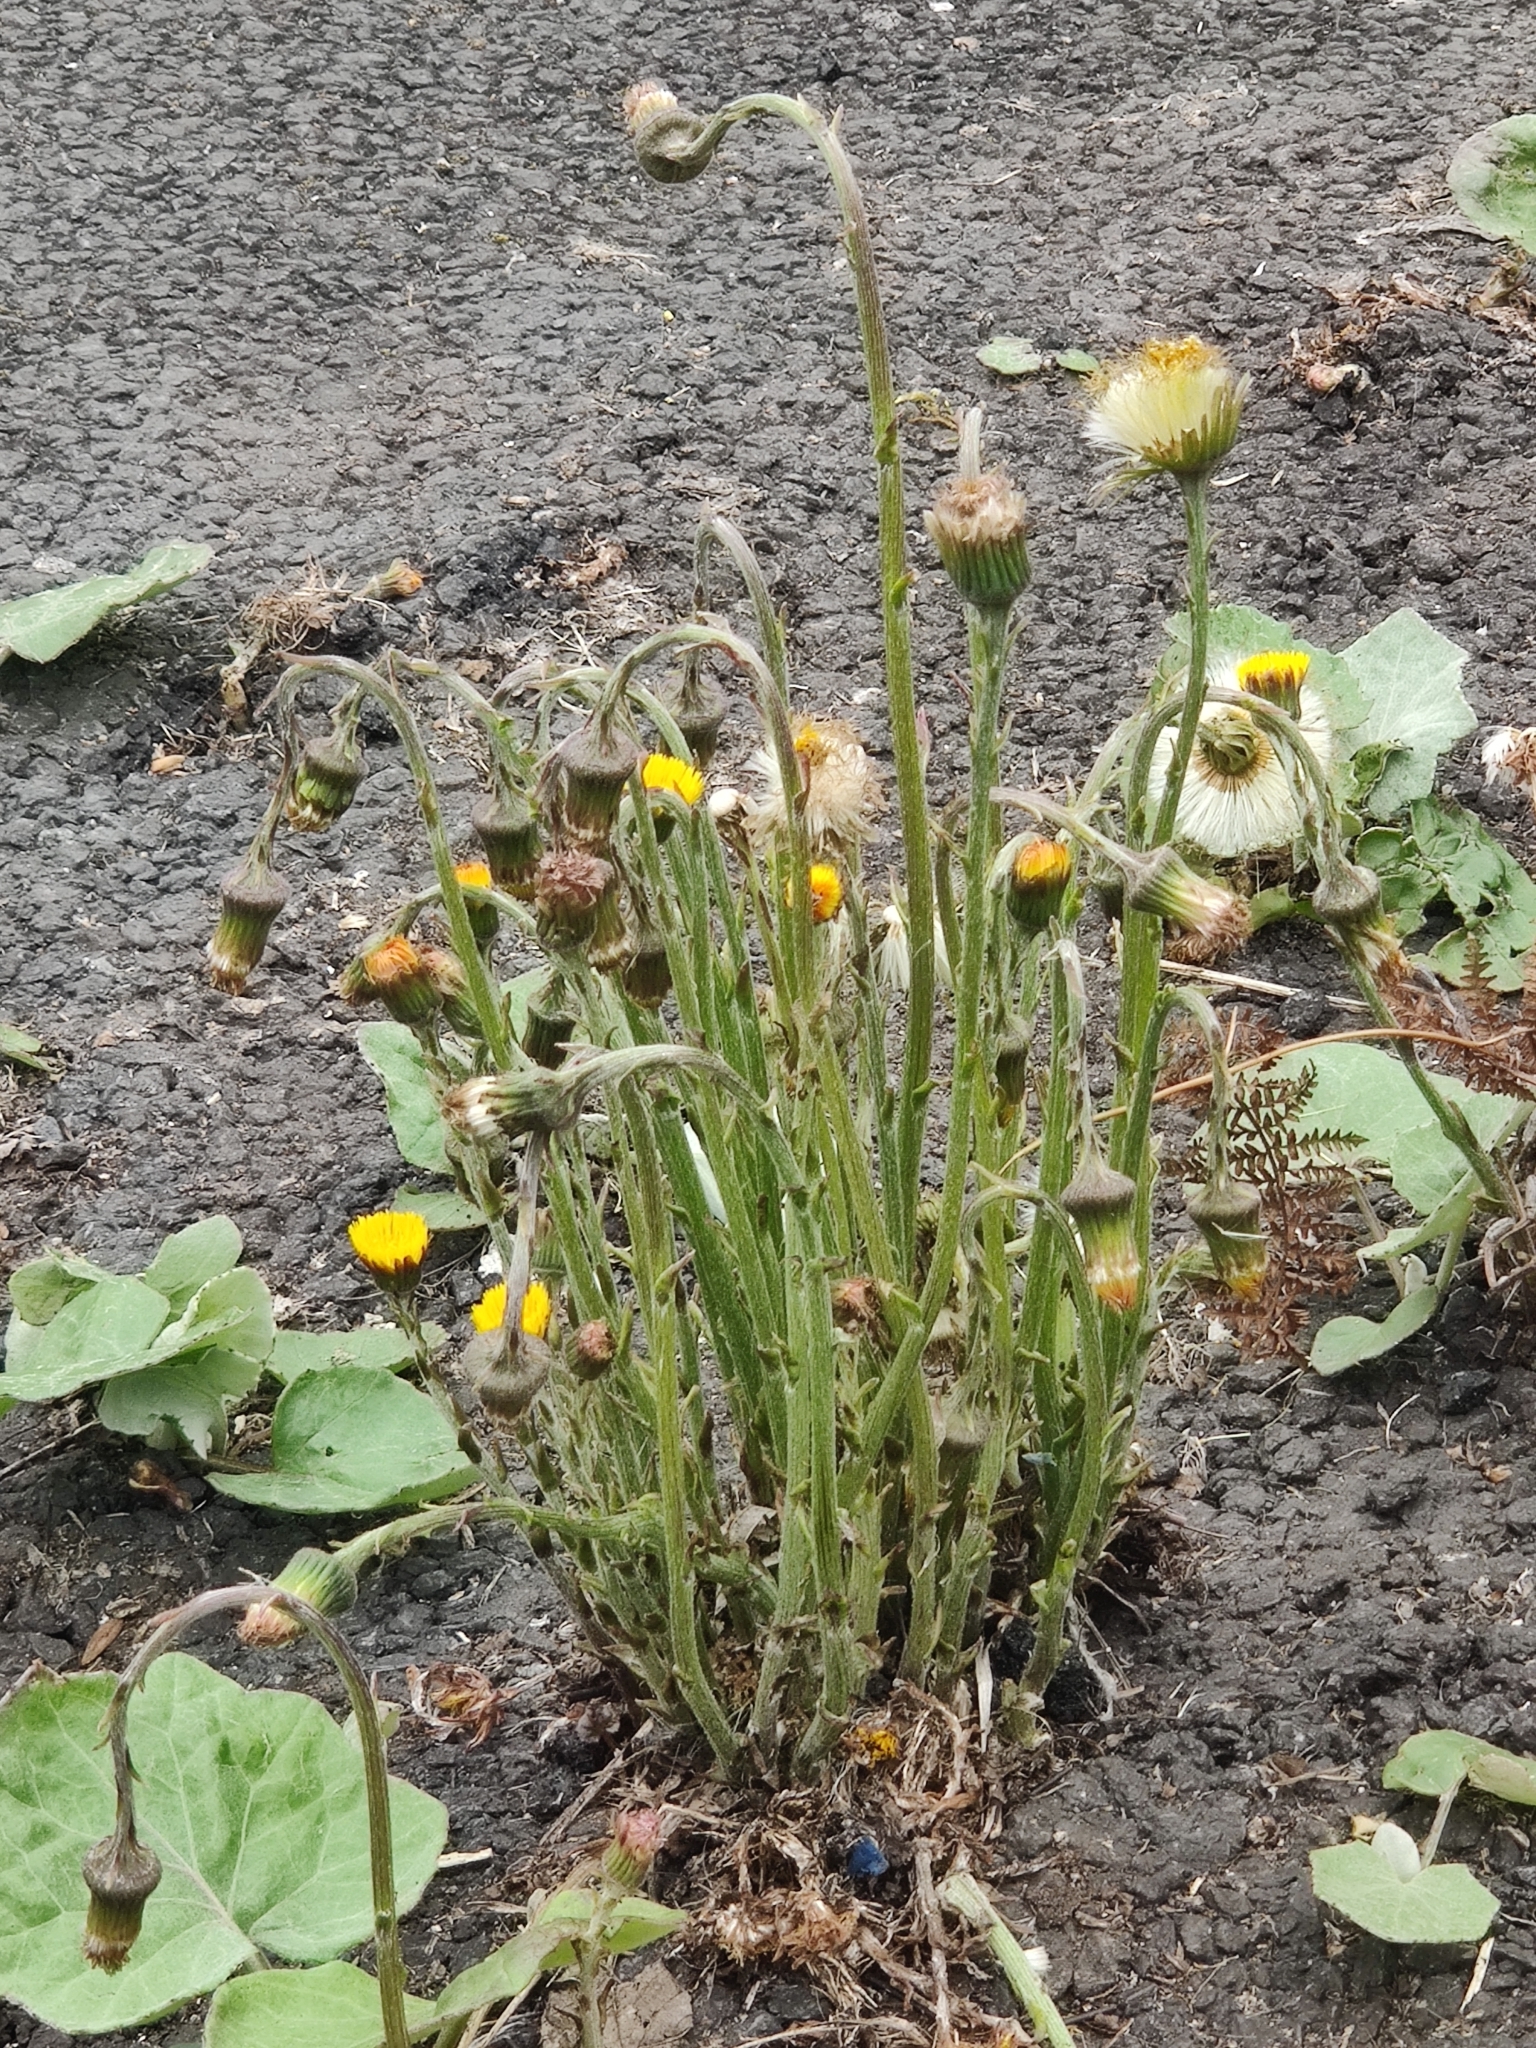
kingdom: Plantae
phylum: Tracheophyta
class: Magnoliopsida
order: Asterales
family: Asteraceae
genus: Tussilago
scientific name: Tussilago farfara
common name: Coltsfoot
